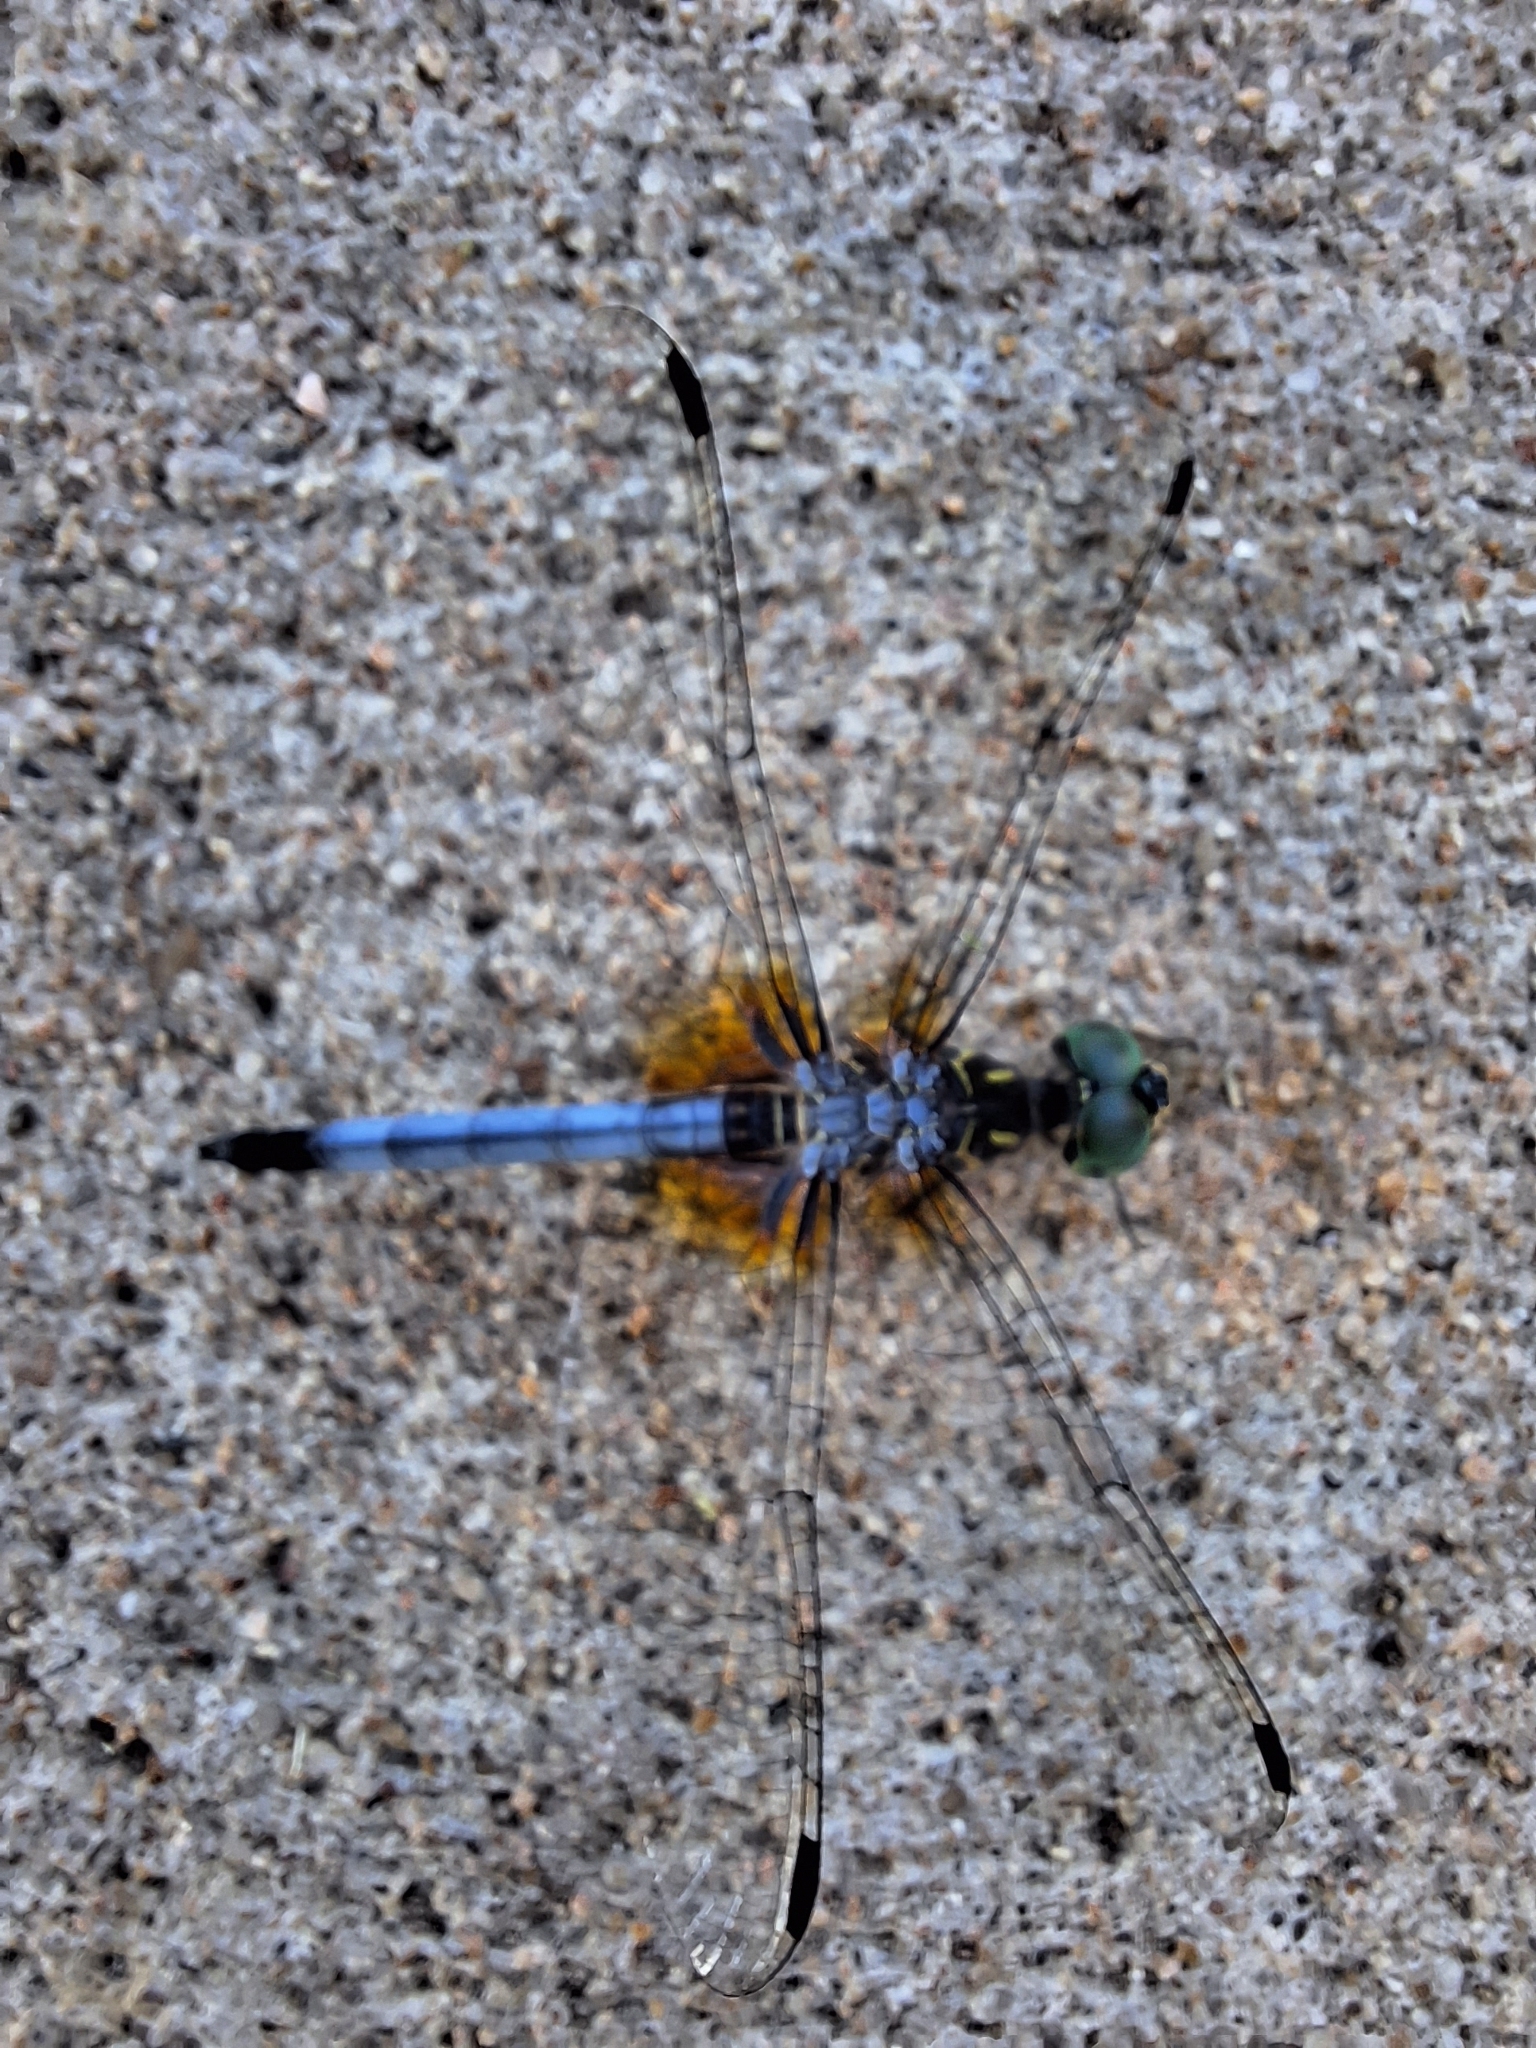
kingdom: Animalia
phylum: Arthropoda
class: Insecta
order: Odonata
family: Libellulidae
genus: Pachydiplax
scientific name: Pachydiplax longipennis
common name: Blue dasher
